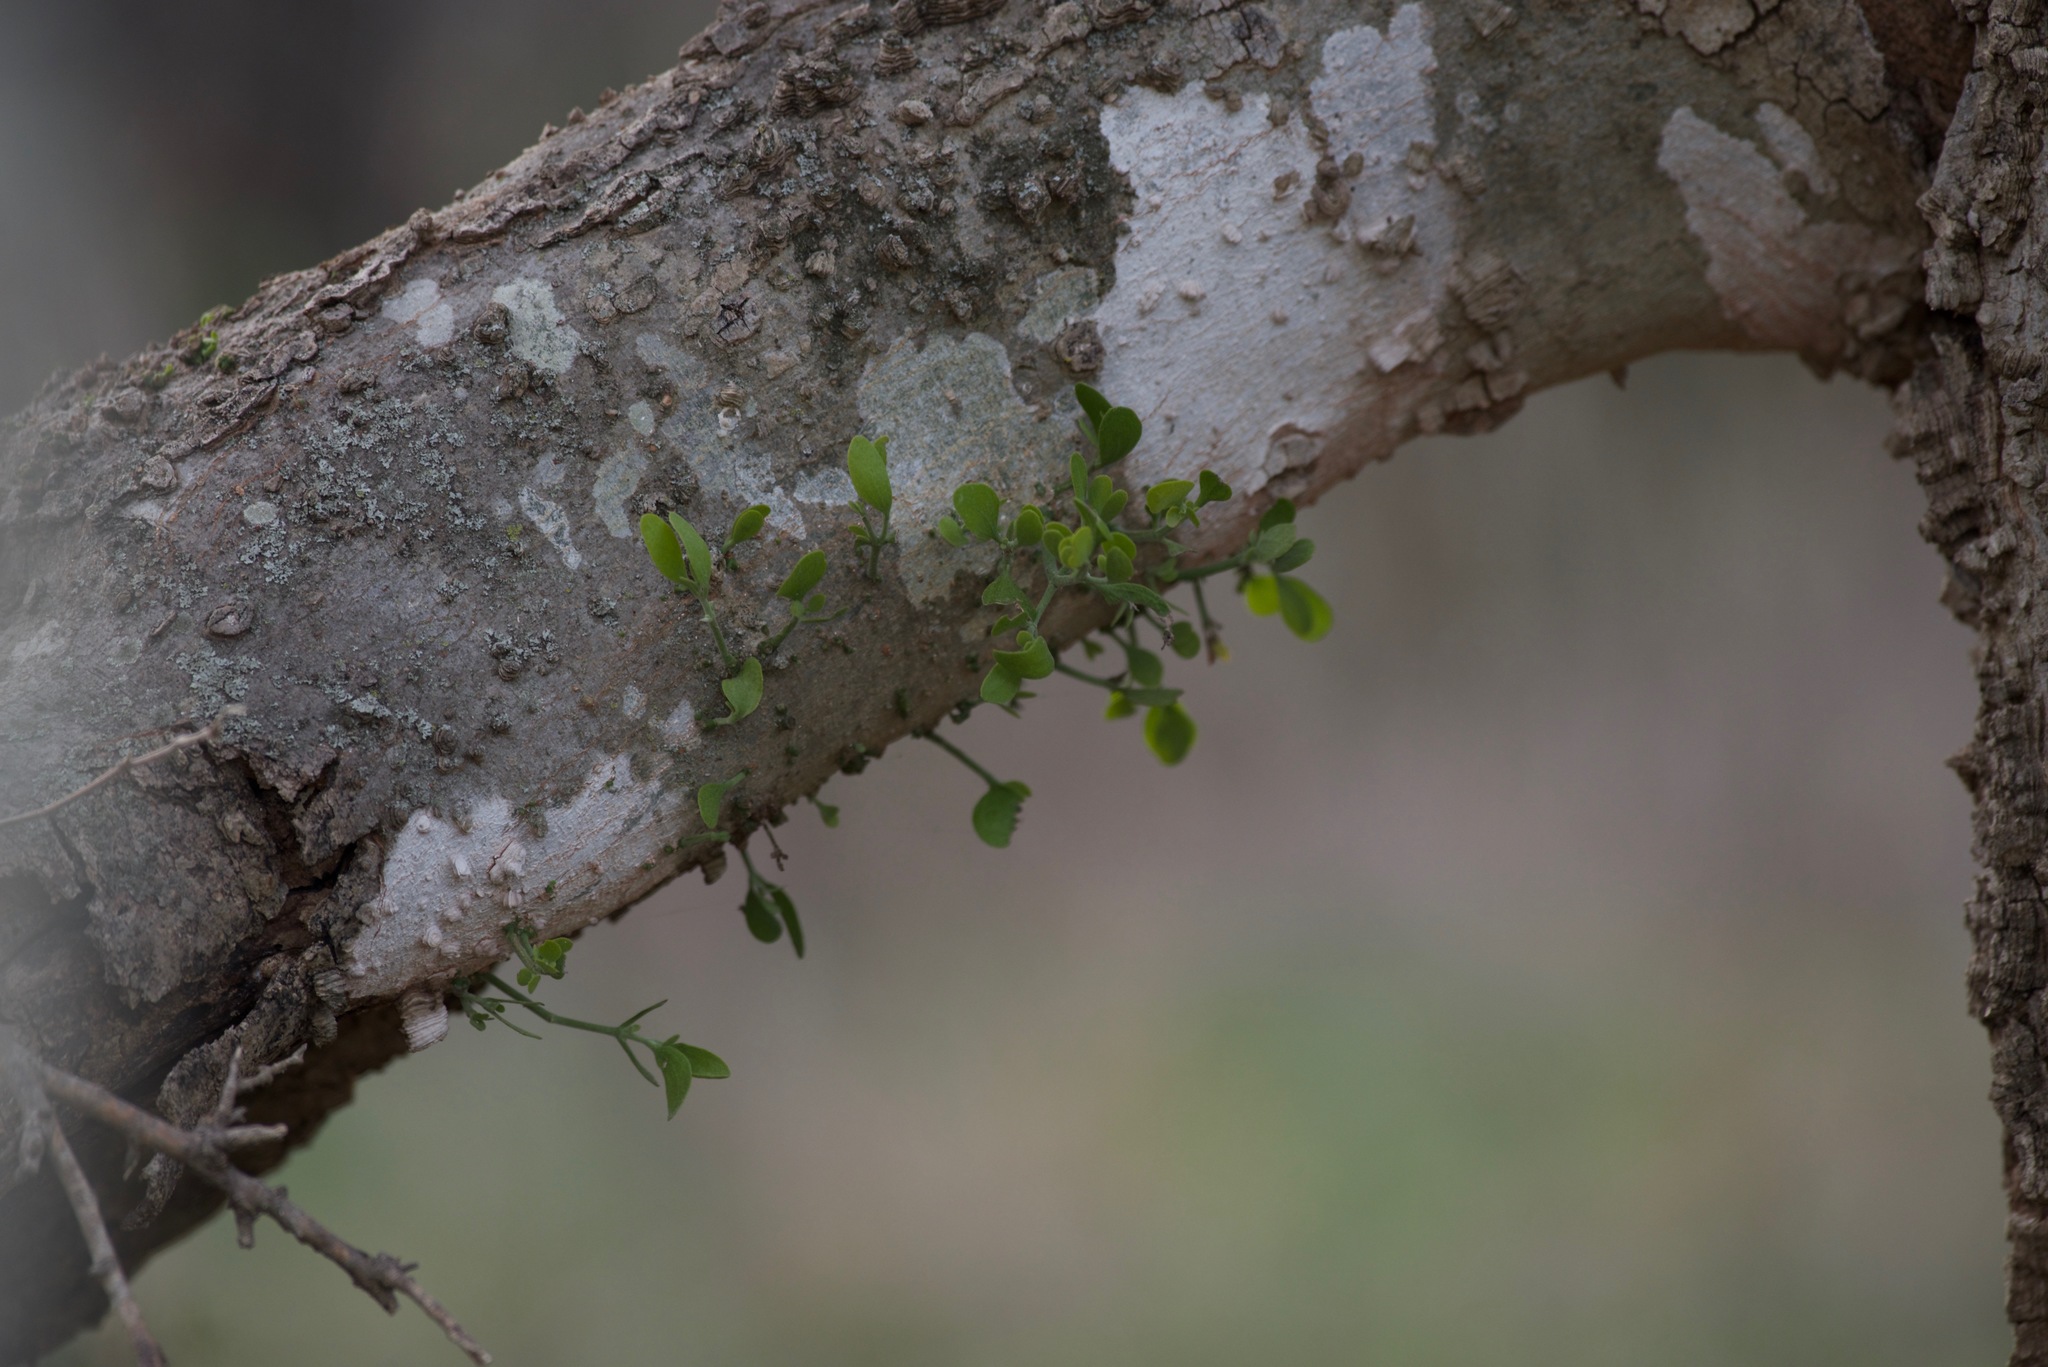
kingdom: Plantae
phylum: Tracheophyta
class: Magnoliopsida
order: Rosales
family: Cannabaceae
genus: Celtis
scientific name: Celtis laevigata
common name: Sugarberry
